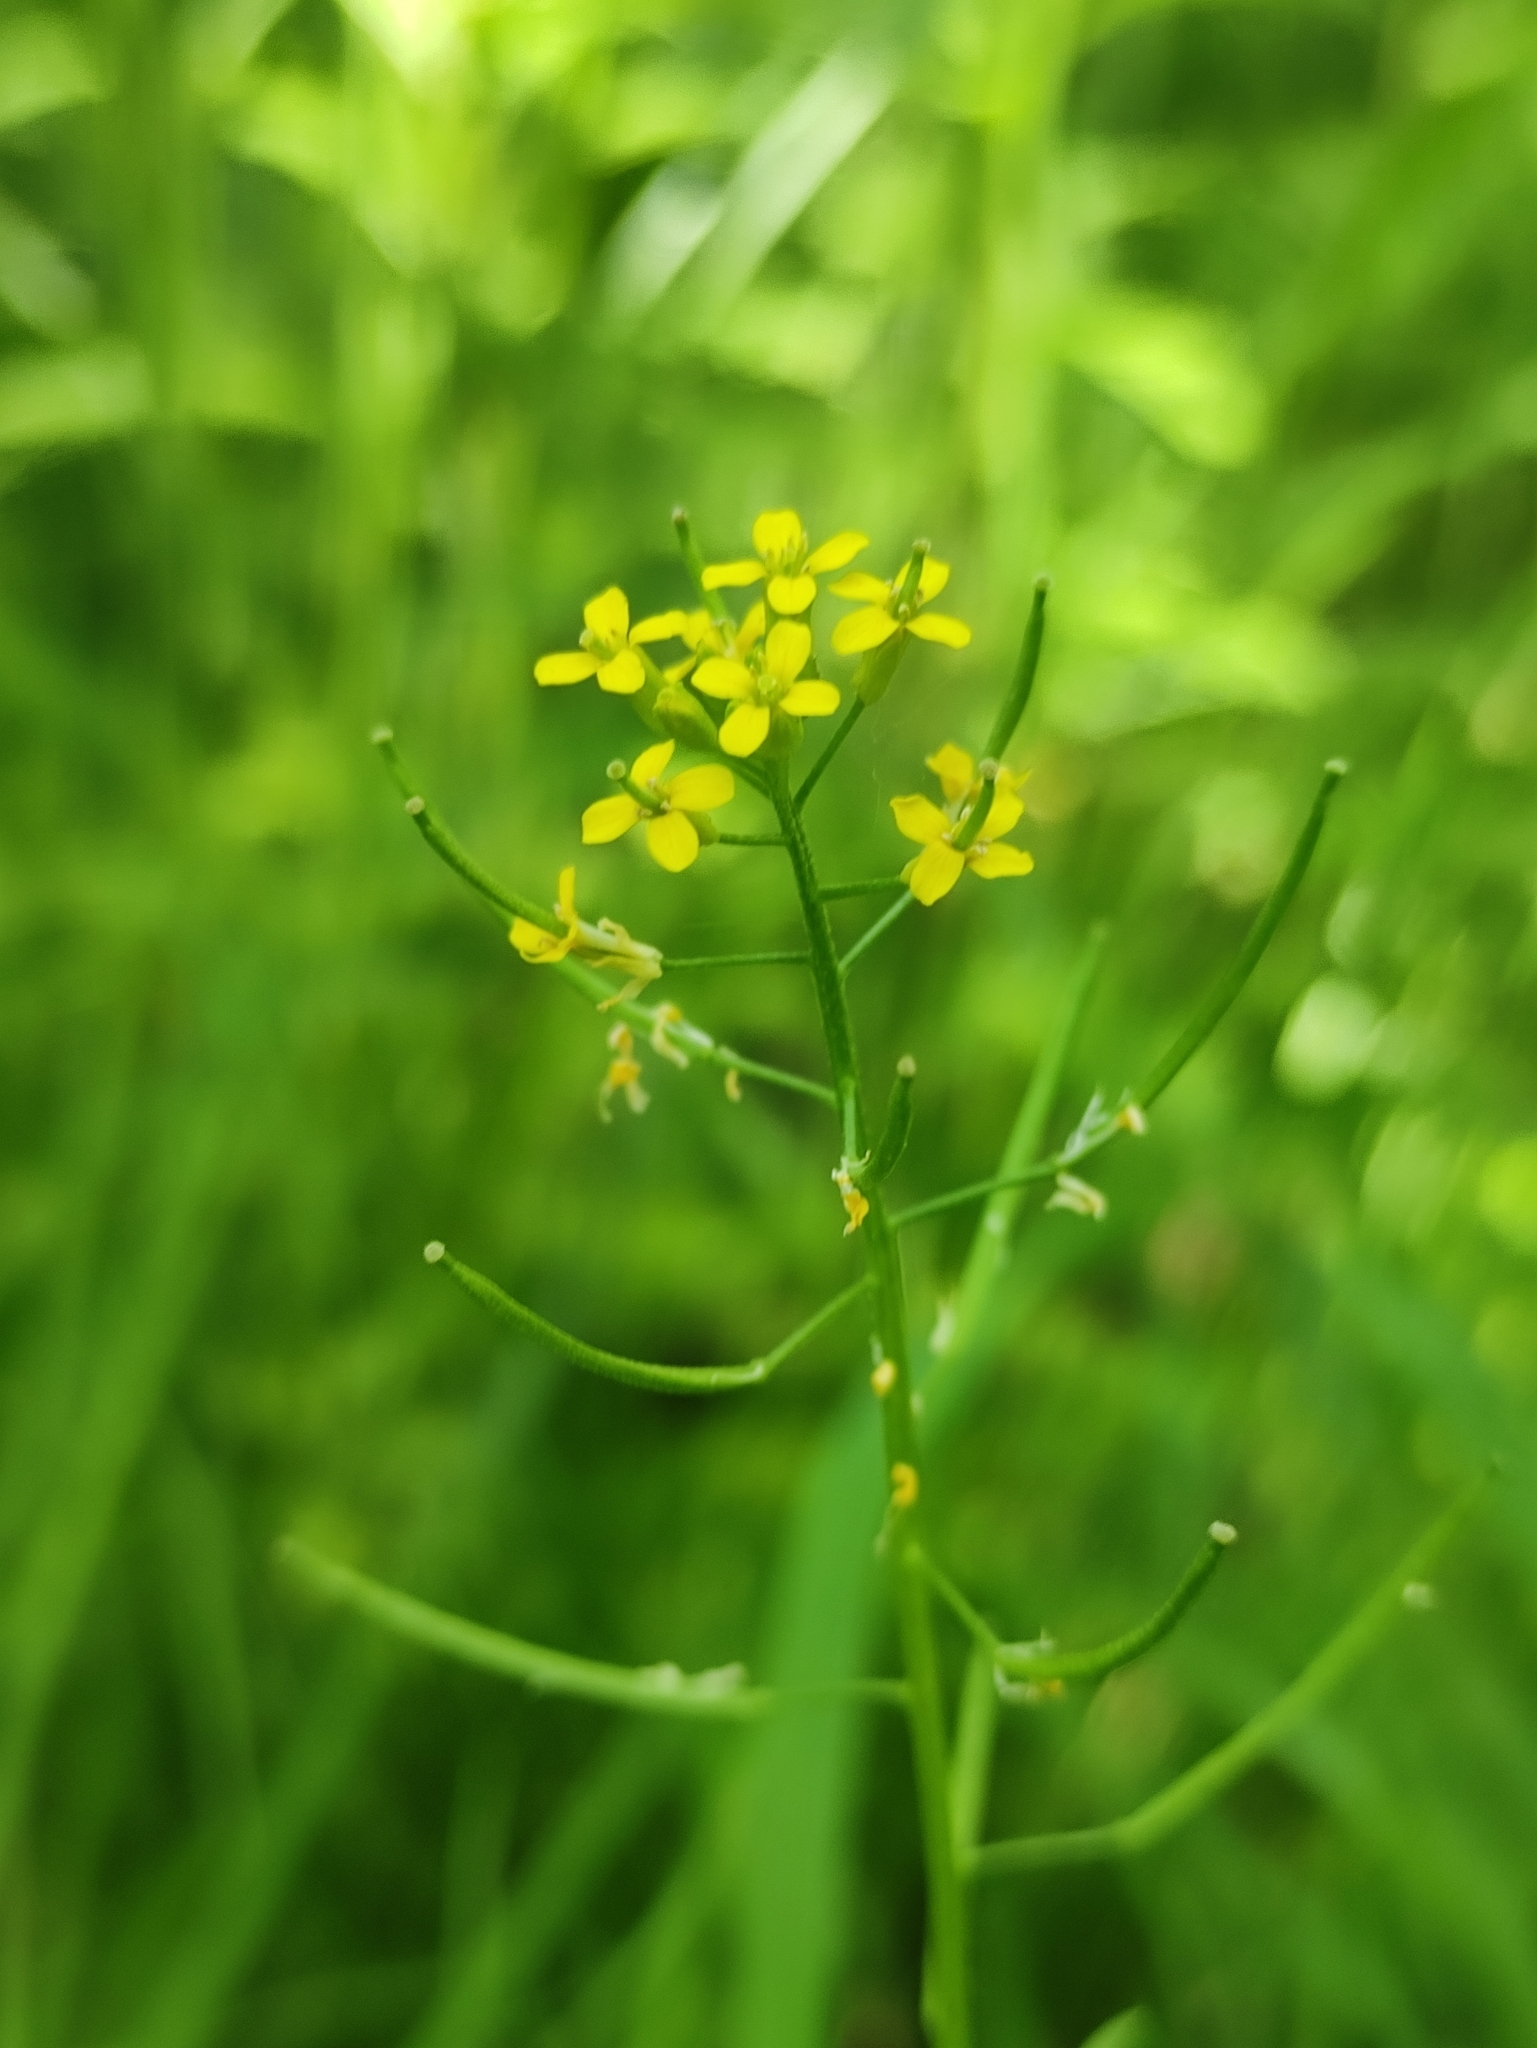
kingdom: Plantae
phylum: Tracheophyta
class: Magnoliopsida
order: Brassicales
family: Brassicaceae
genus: Erysimum
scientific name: Erysimum cheiranthoides
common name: Treacle mustard
